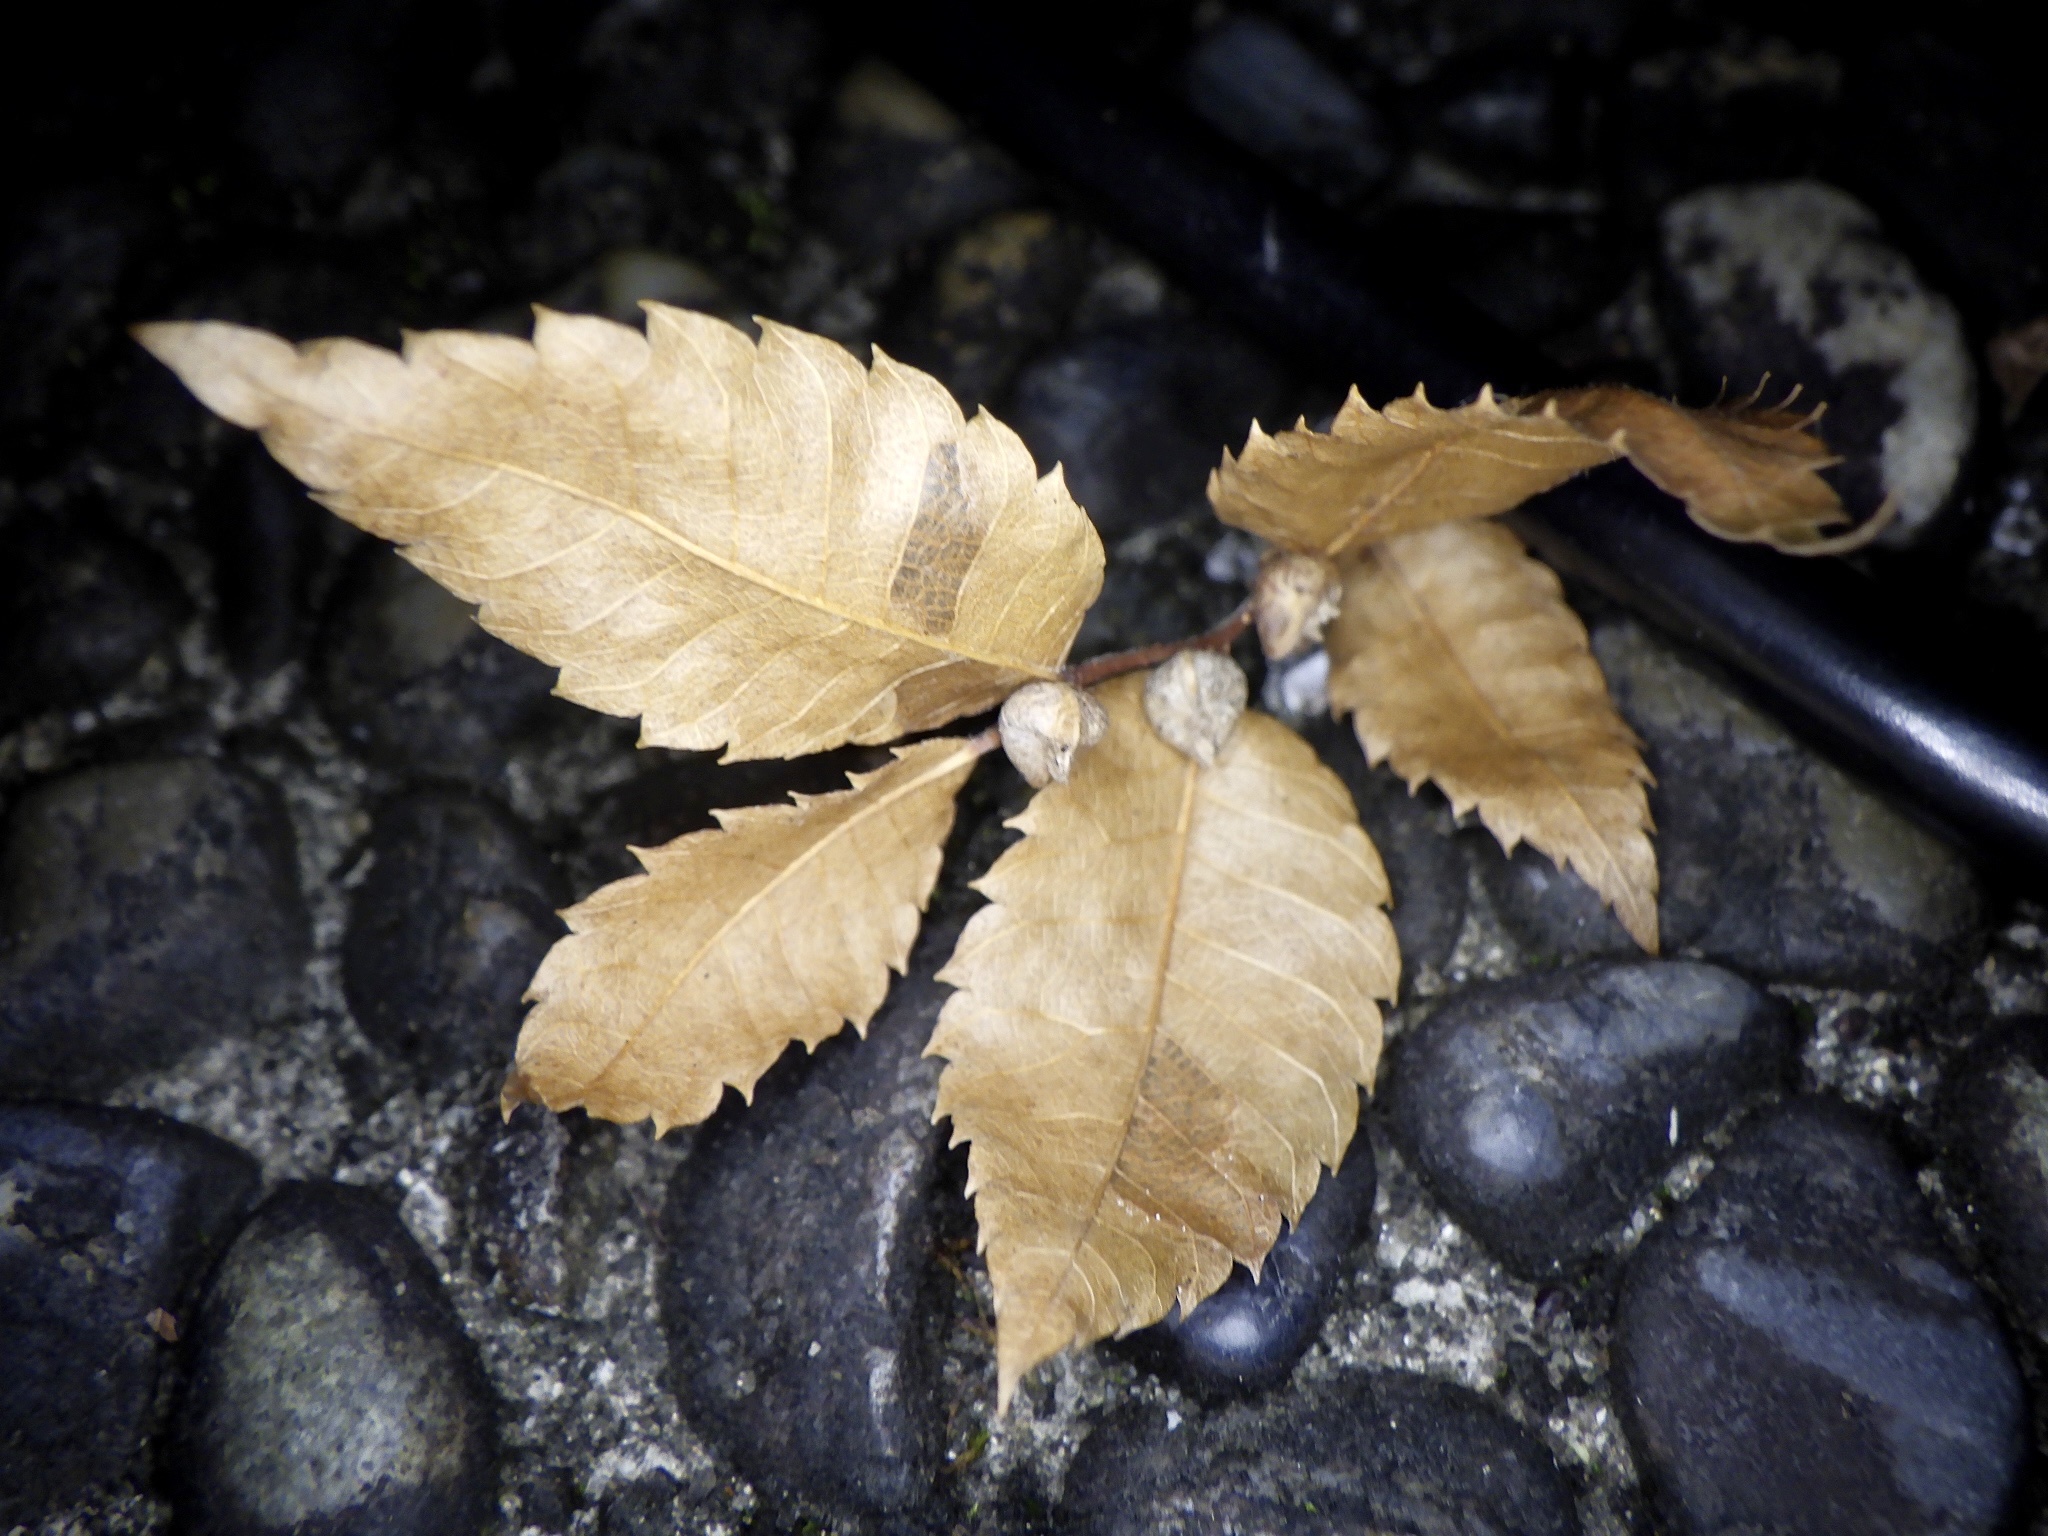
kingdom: Plantae
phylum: Tracheophyta
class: Magnoliopsida
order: Rosales
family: Ulmaceae
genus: Zelkova
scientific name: Zelkova serrata
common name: Japanese zelkova
